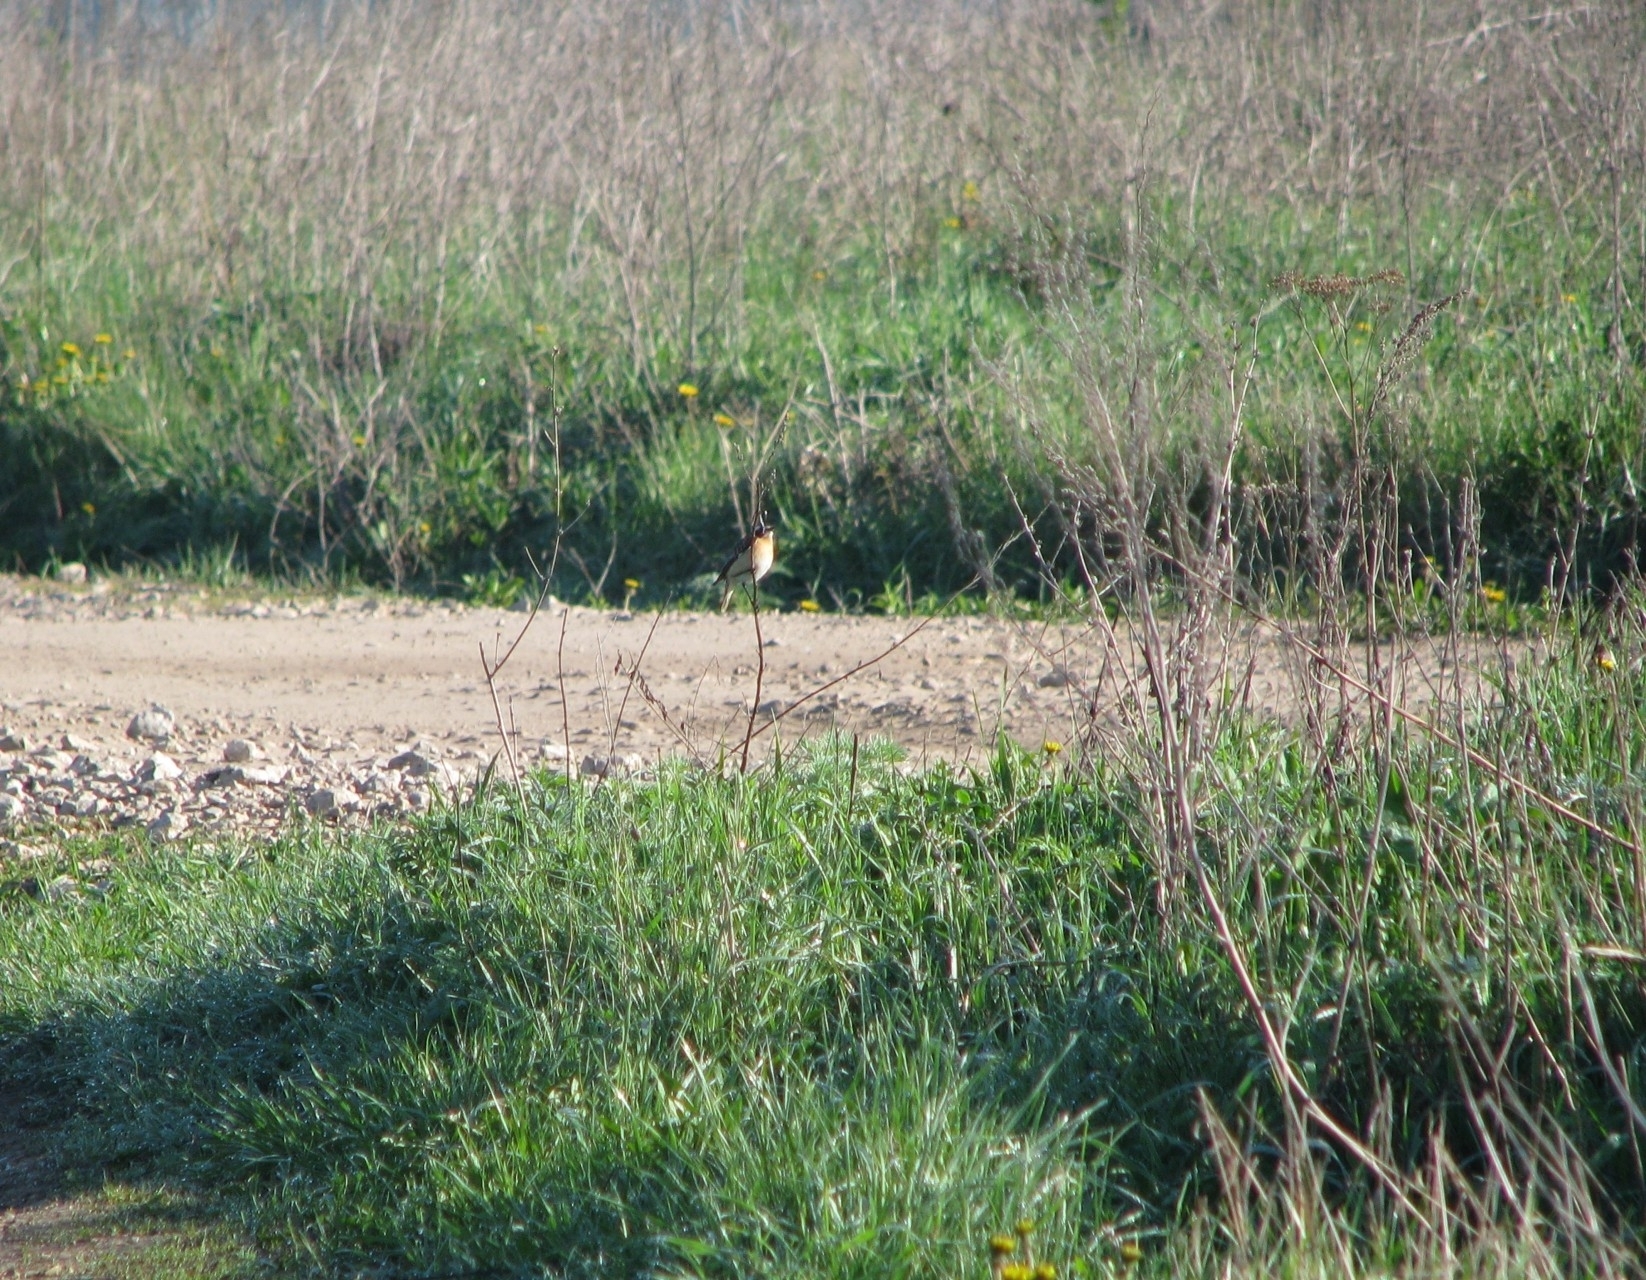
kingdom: Animalia
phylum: Chordata
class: Aves
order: Passeriformes
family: Muscicapidae
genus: Saxicola
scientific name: Saxicola rubetra
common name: Whinchat
